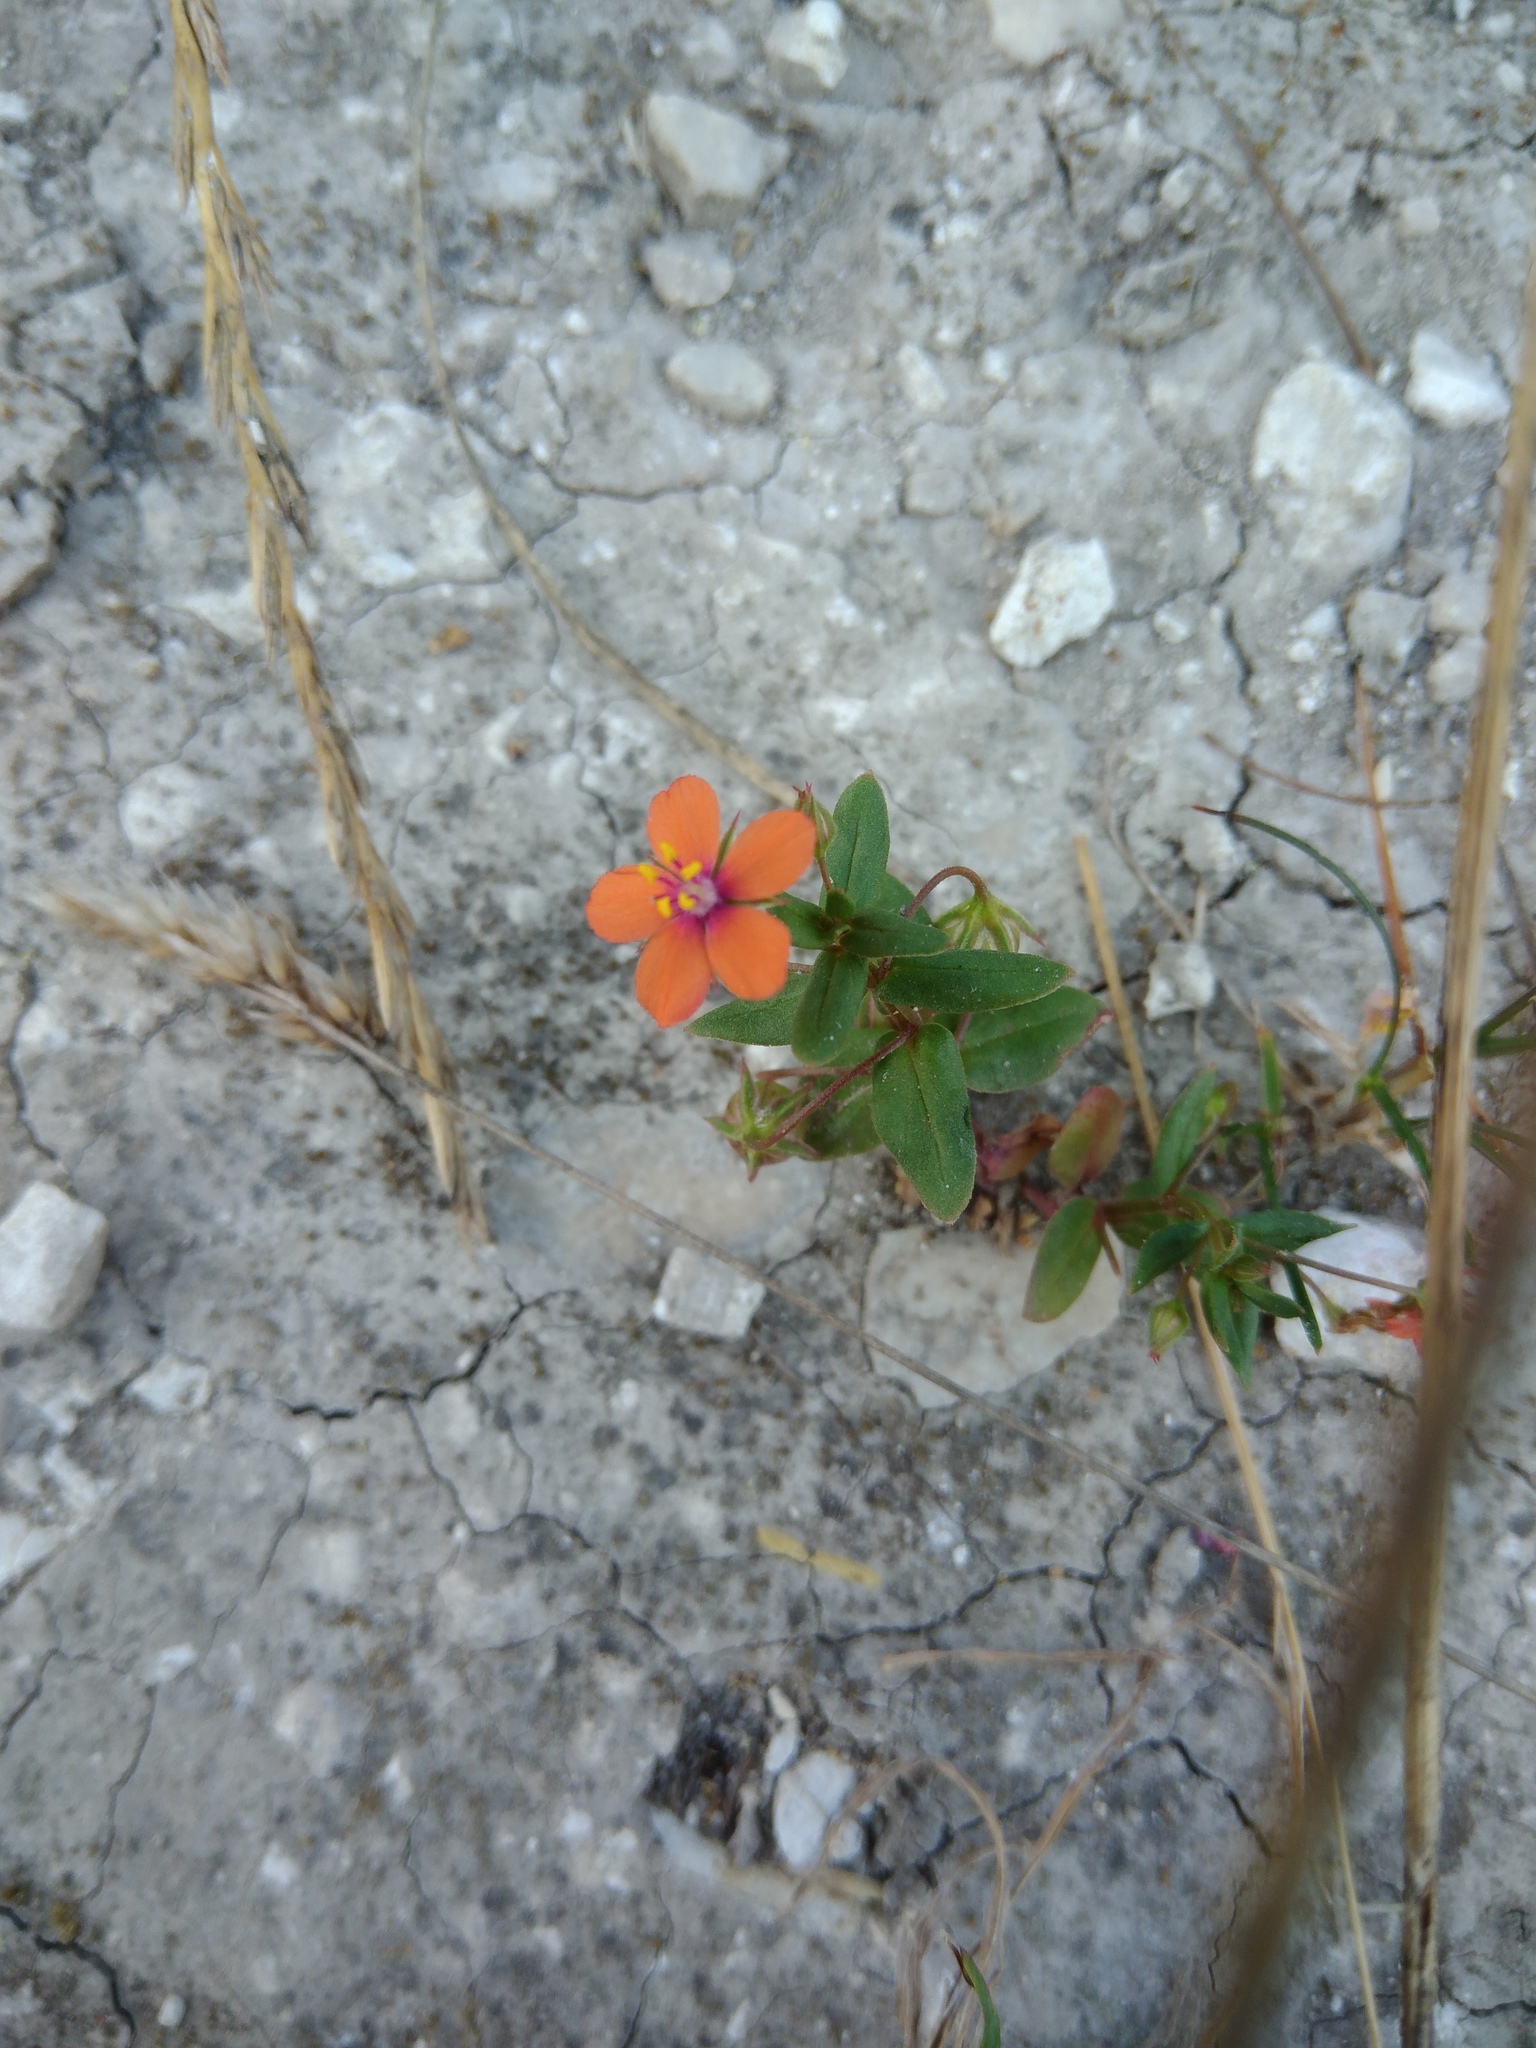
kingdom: Plantae
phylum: Tracheophyta
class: Magnoliopsida
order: Ericales
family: Primulaceae
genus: Lysimachia
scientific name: Lysimachia arvensis
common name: Scarlet pimpernel
